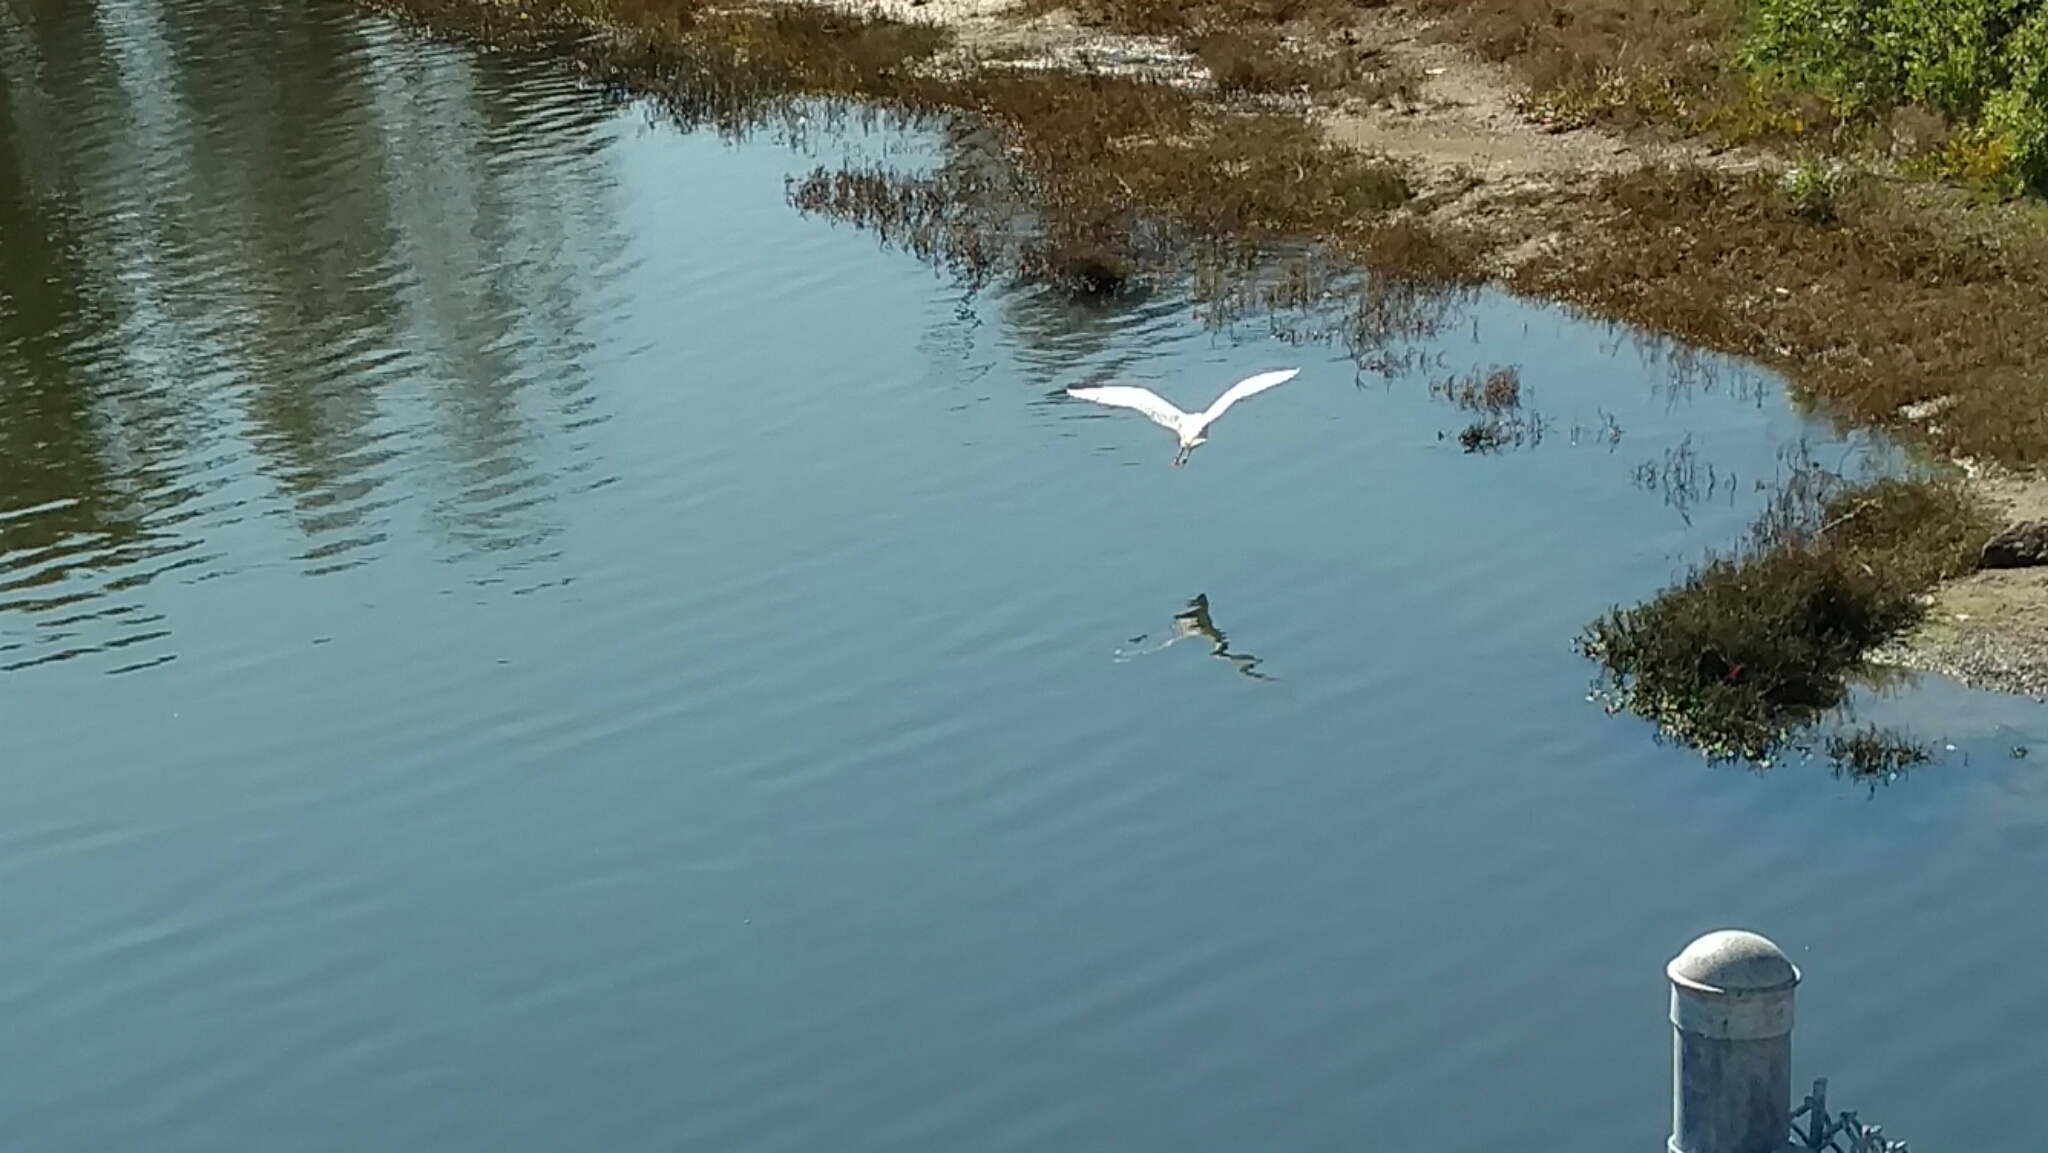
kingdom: Animalia
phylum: Chordata
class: Aves
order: Pelecaniformes
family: Ardeidae
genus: Egretta
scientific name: Egretta thula
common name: Snowy egret
